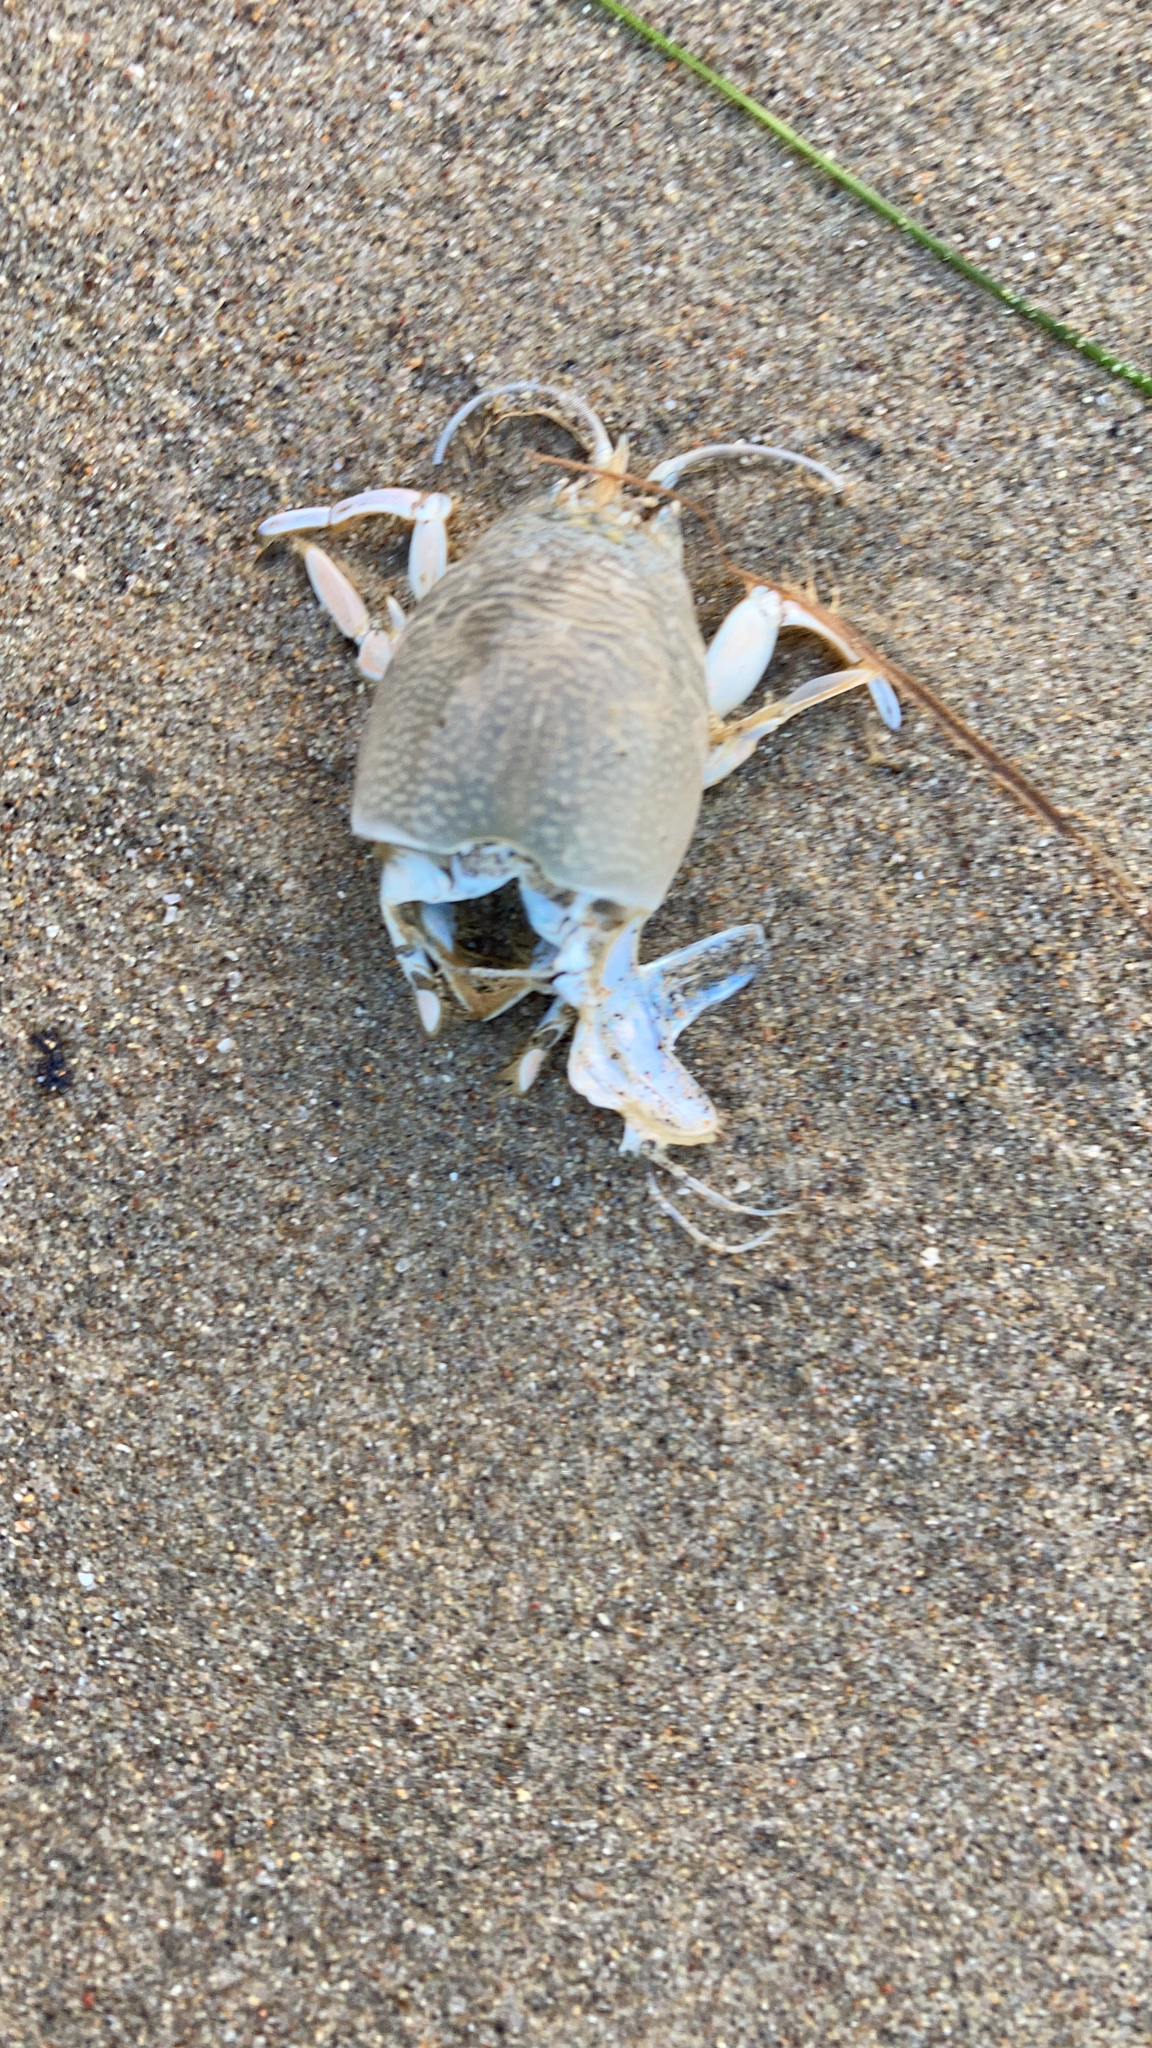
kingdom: Animalia
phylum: Arthropoda
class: Malacostraca
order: Decapoda
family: Hippidae
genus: Emerita
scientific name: Emerita analoga
